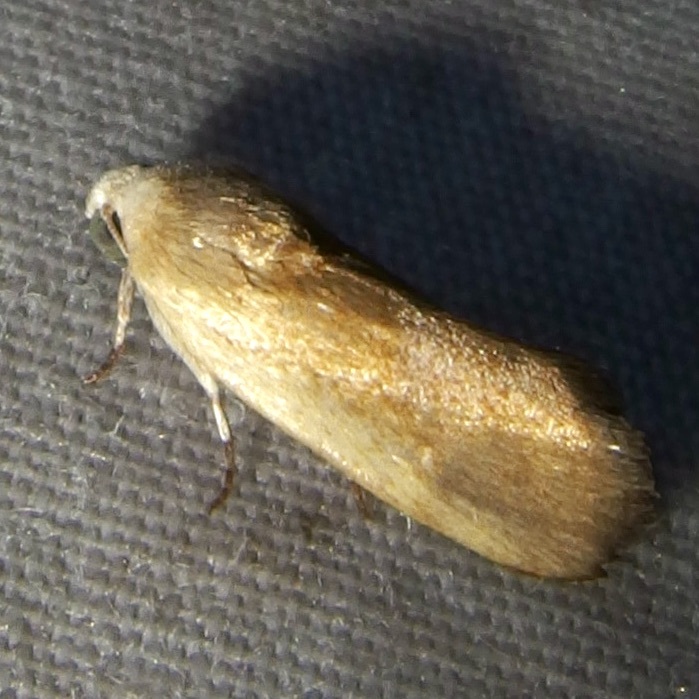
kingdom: Animalia
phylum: Arthropoda
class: Insecta
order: Lepidoptera
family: Noctuidae
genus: Acontia
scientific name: Acontia fasciatella
